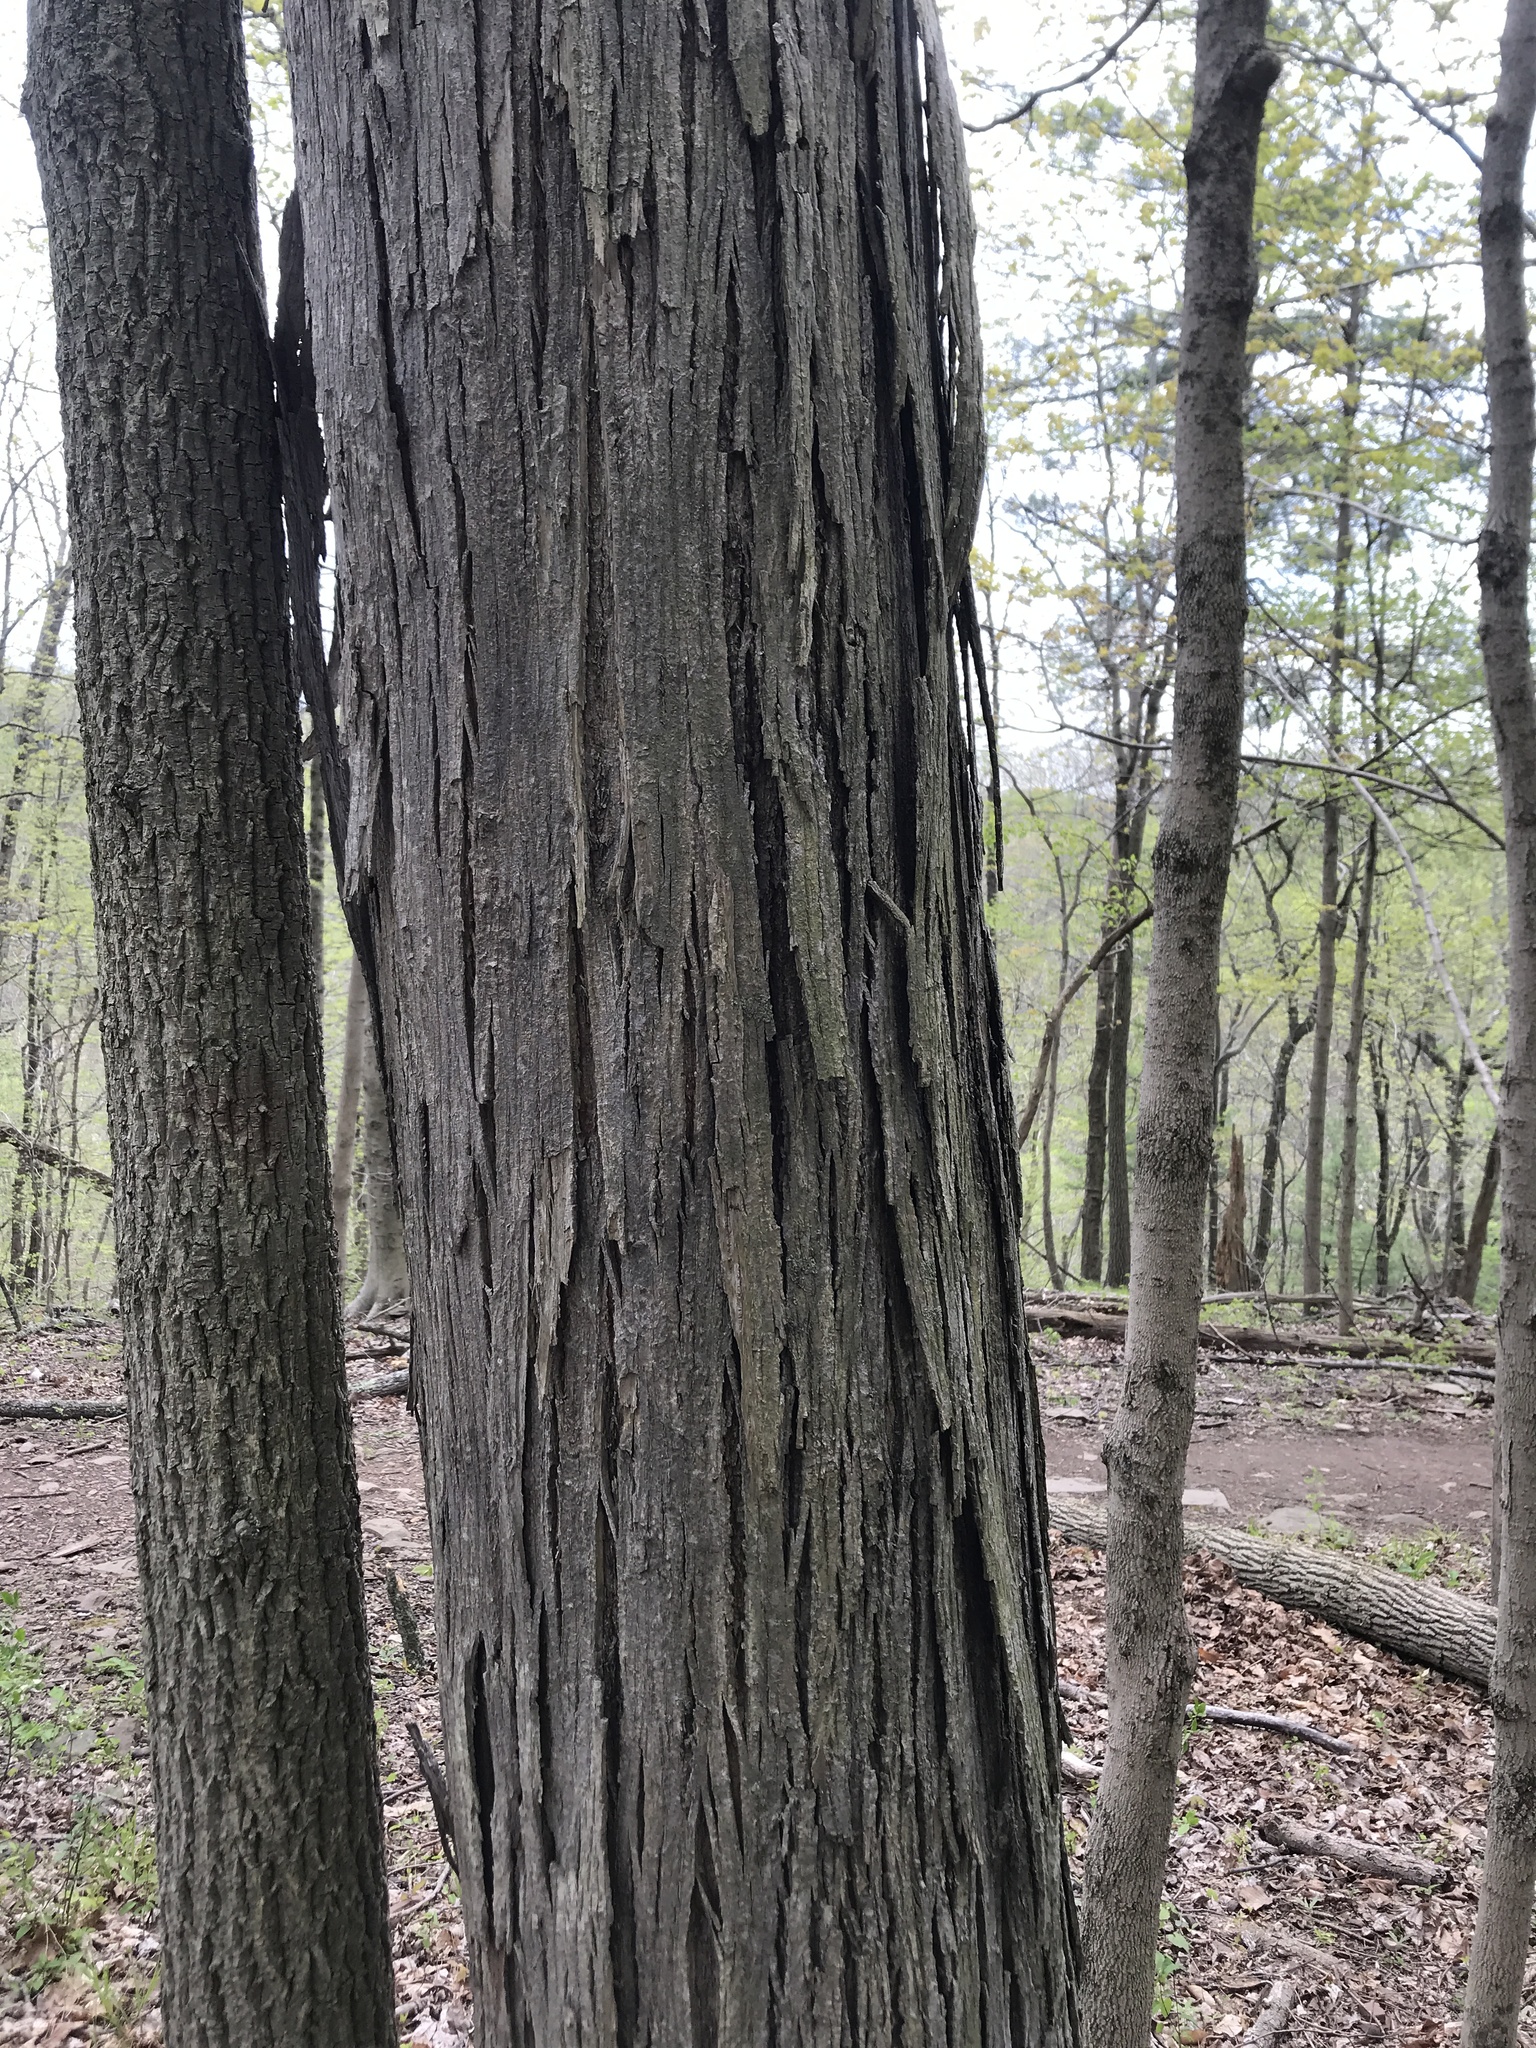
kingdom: Plantae
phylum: Tracheophyta
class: Magnoliopsida
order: Fagales
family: Juglandaceae
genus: Carya
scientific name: Carya ovata
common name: Shagbark hickory
